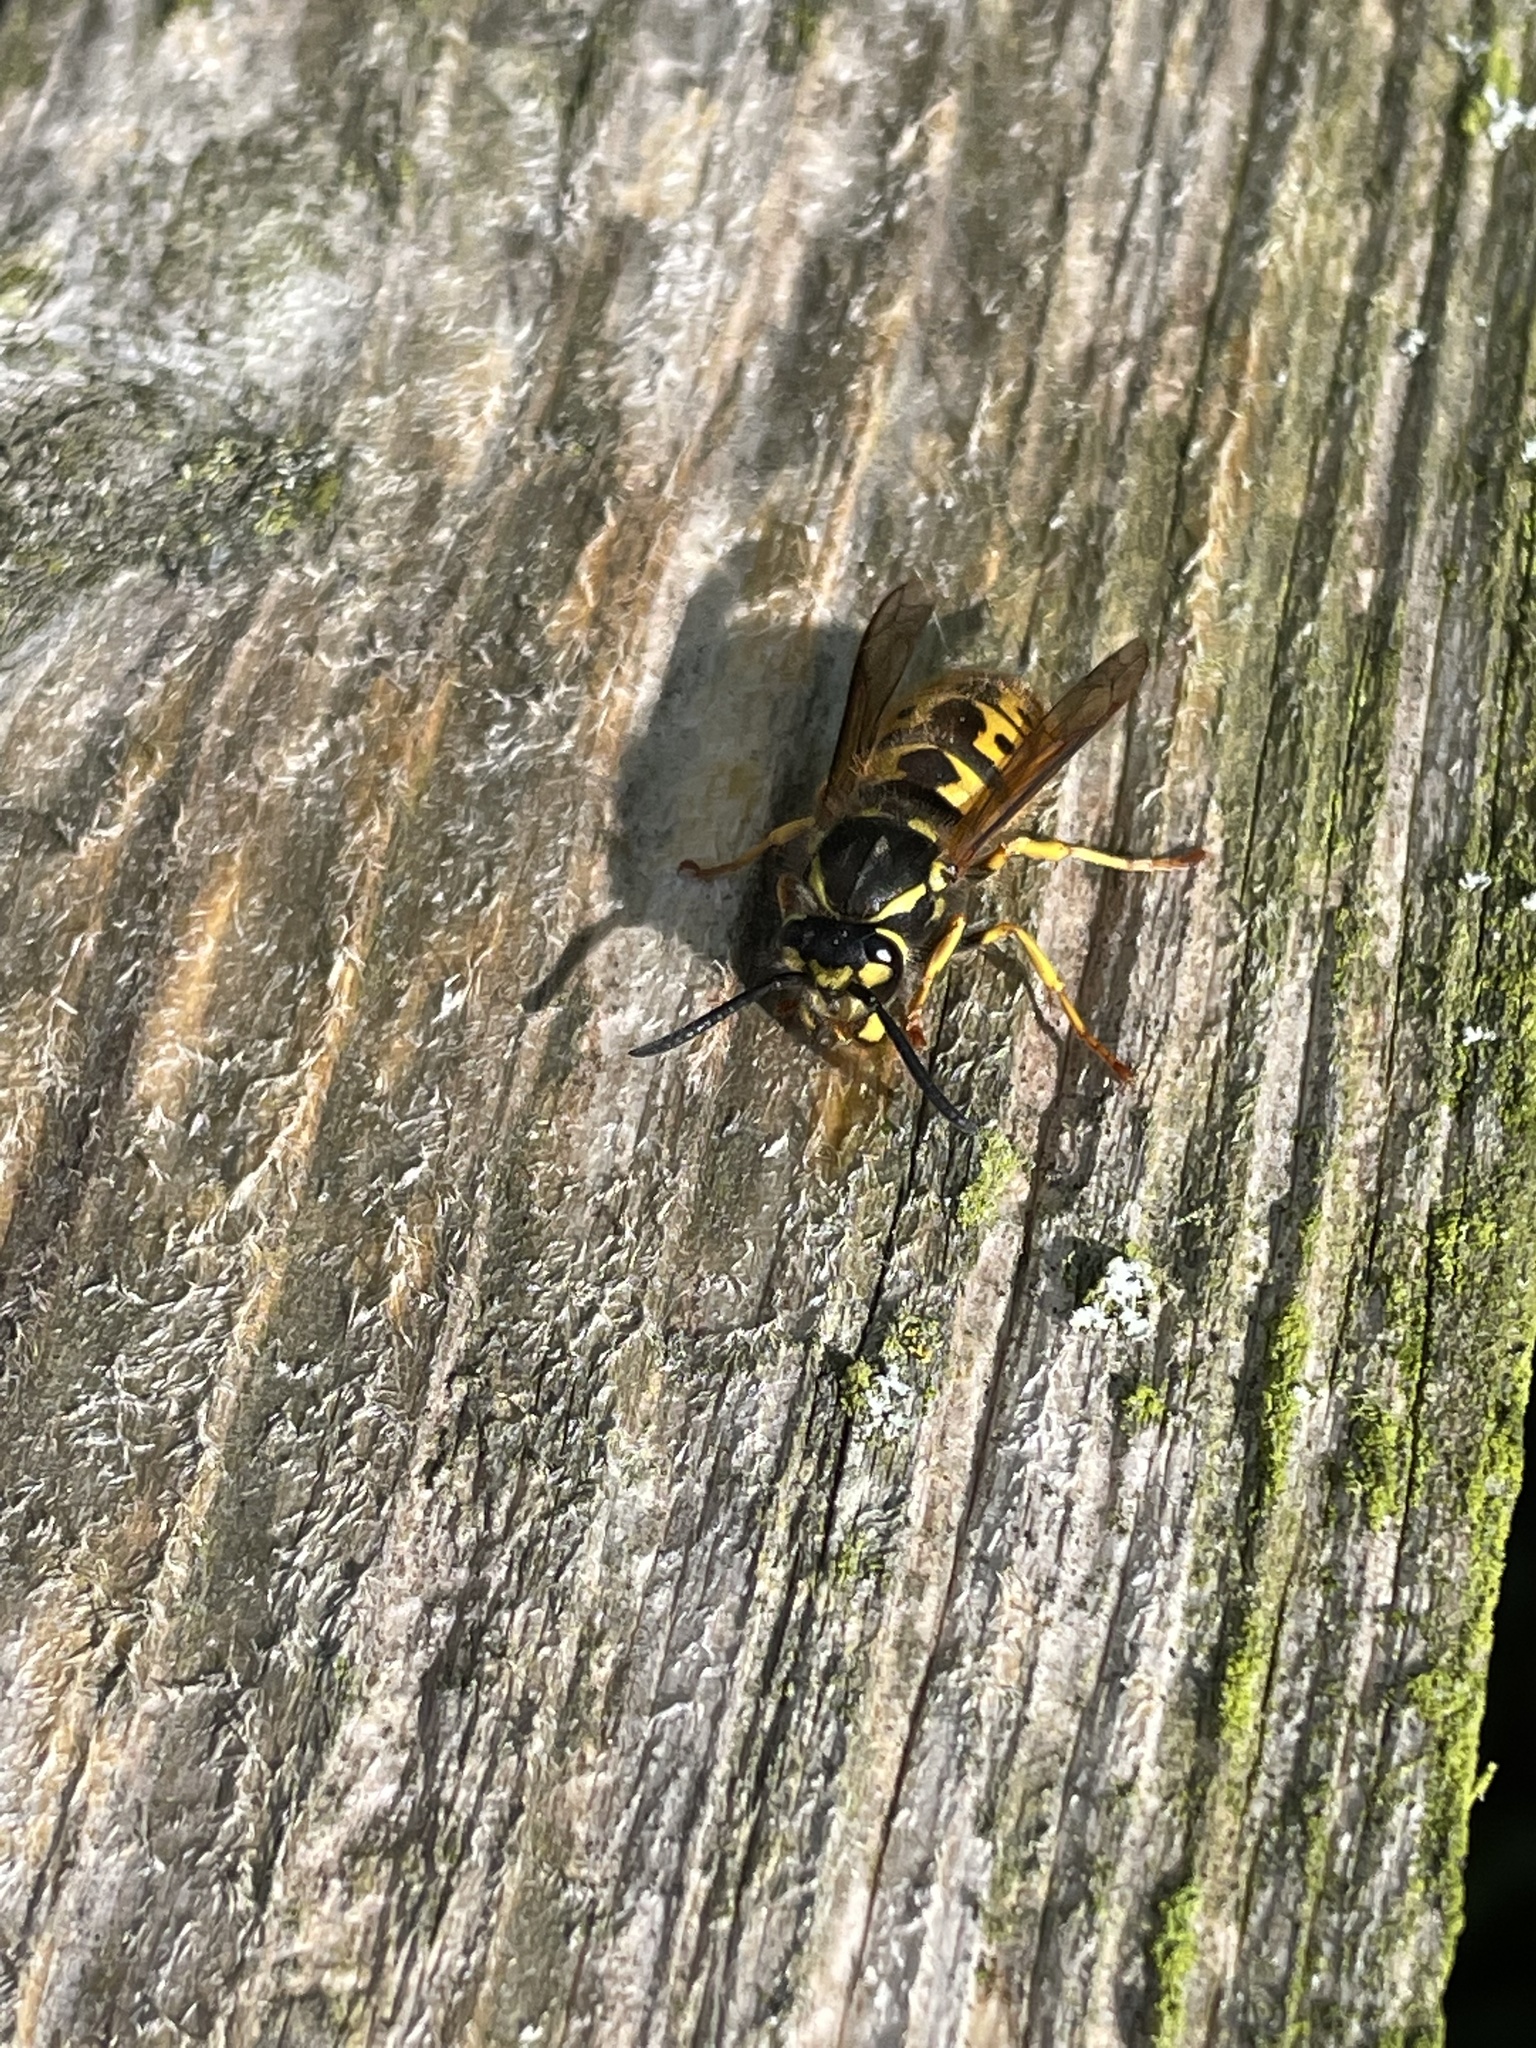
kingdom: Animalia
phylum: Arthropoda
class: Insecta
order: Hymenoptera
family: Vespidae
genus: Vespula
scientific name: Vespula germanica
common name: German wasp
